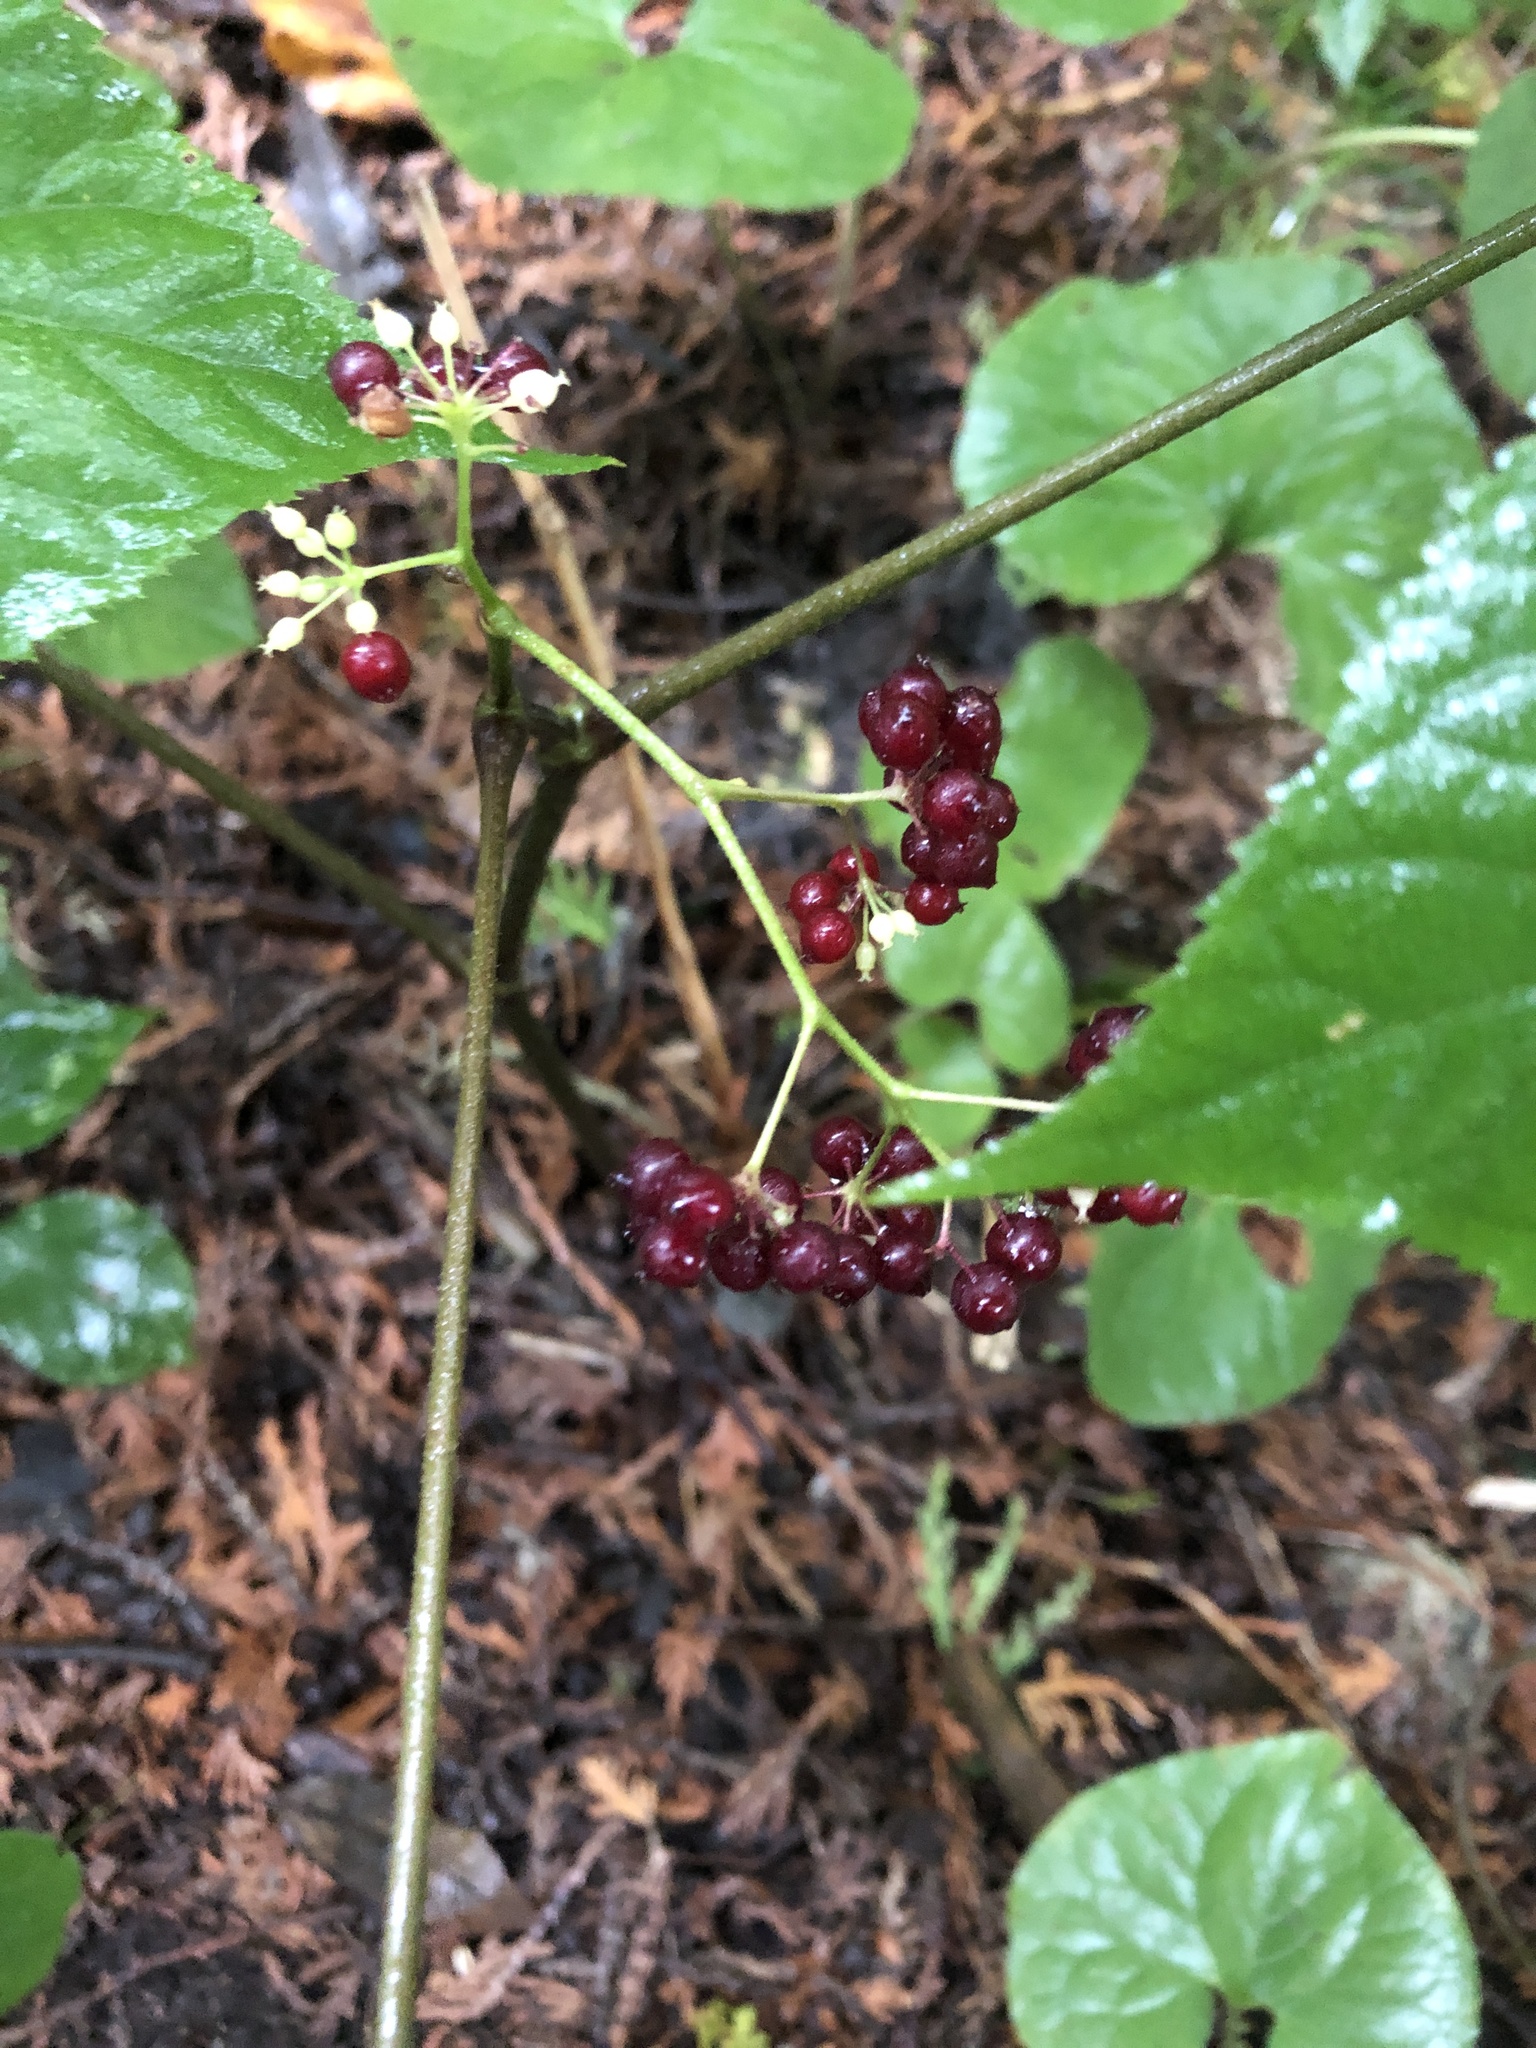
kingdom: Plantae
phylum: Tracheophyta
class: Magnoliopsida
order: Apiales
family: Araliaceae
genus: Aralia
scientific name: Aralia racemosa
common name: American-spikenard
